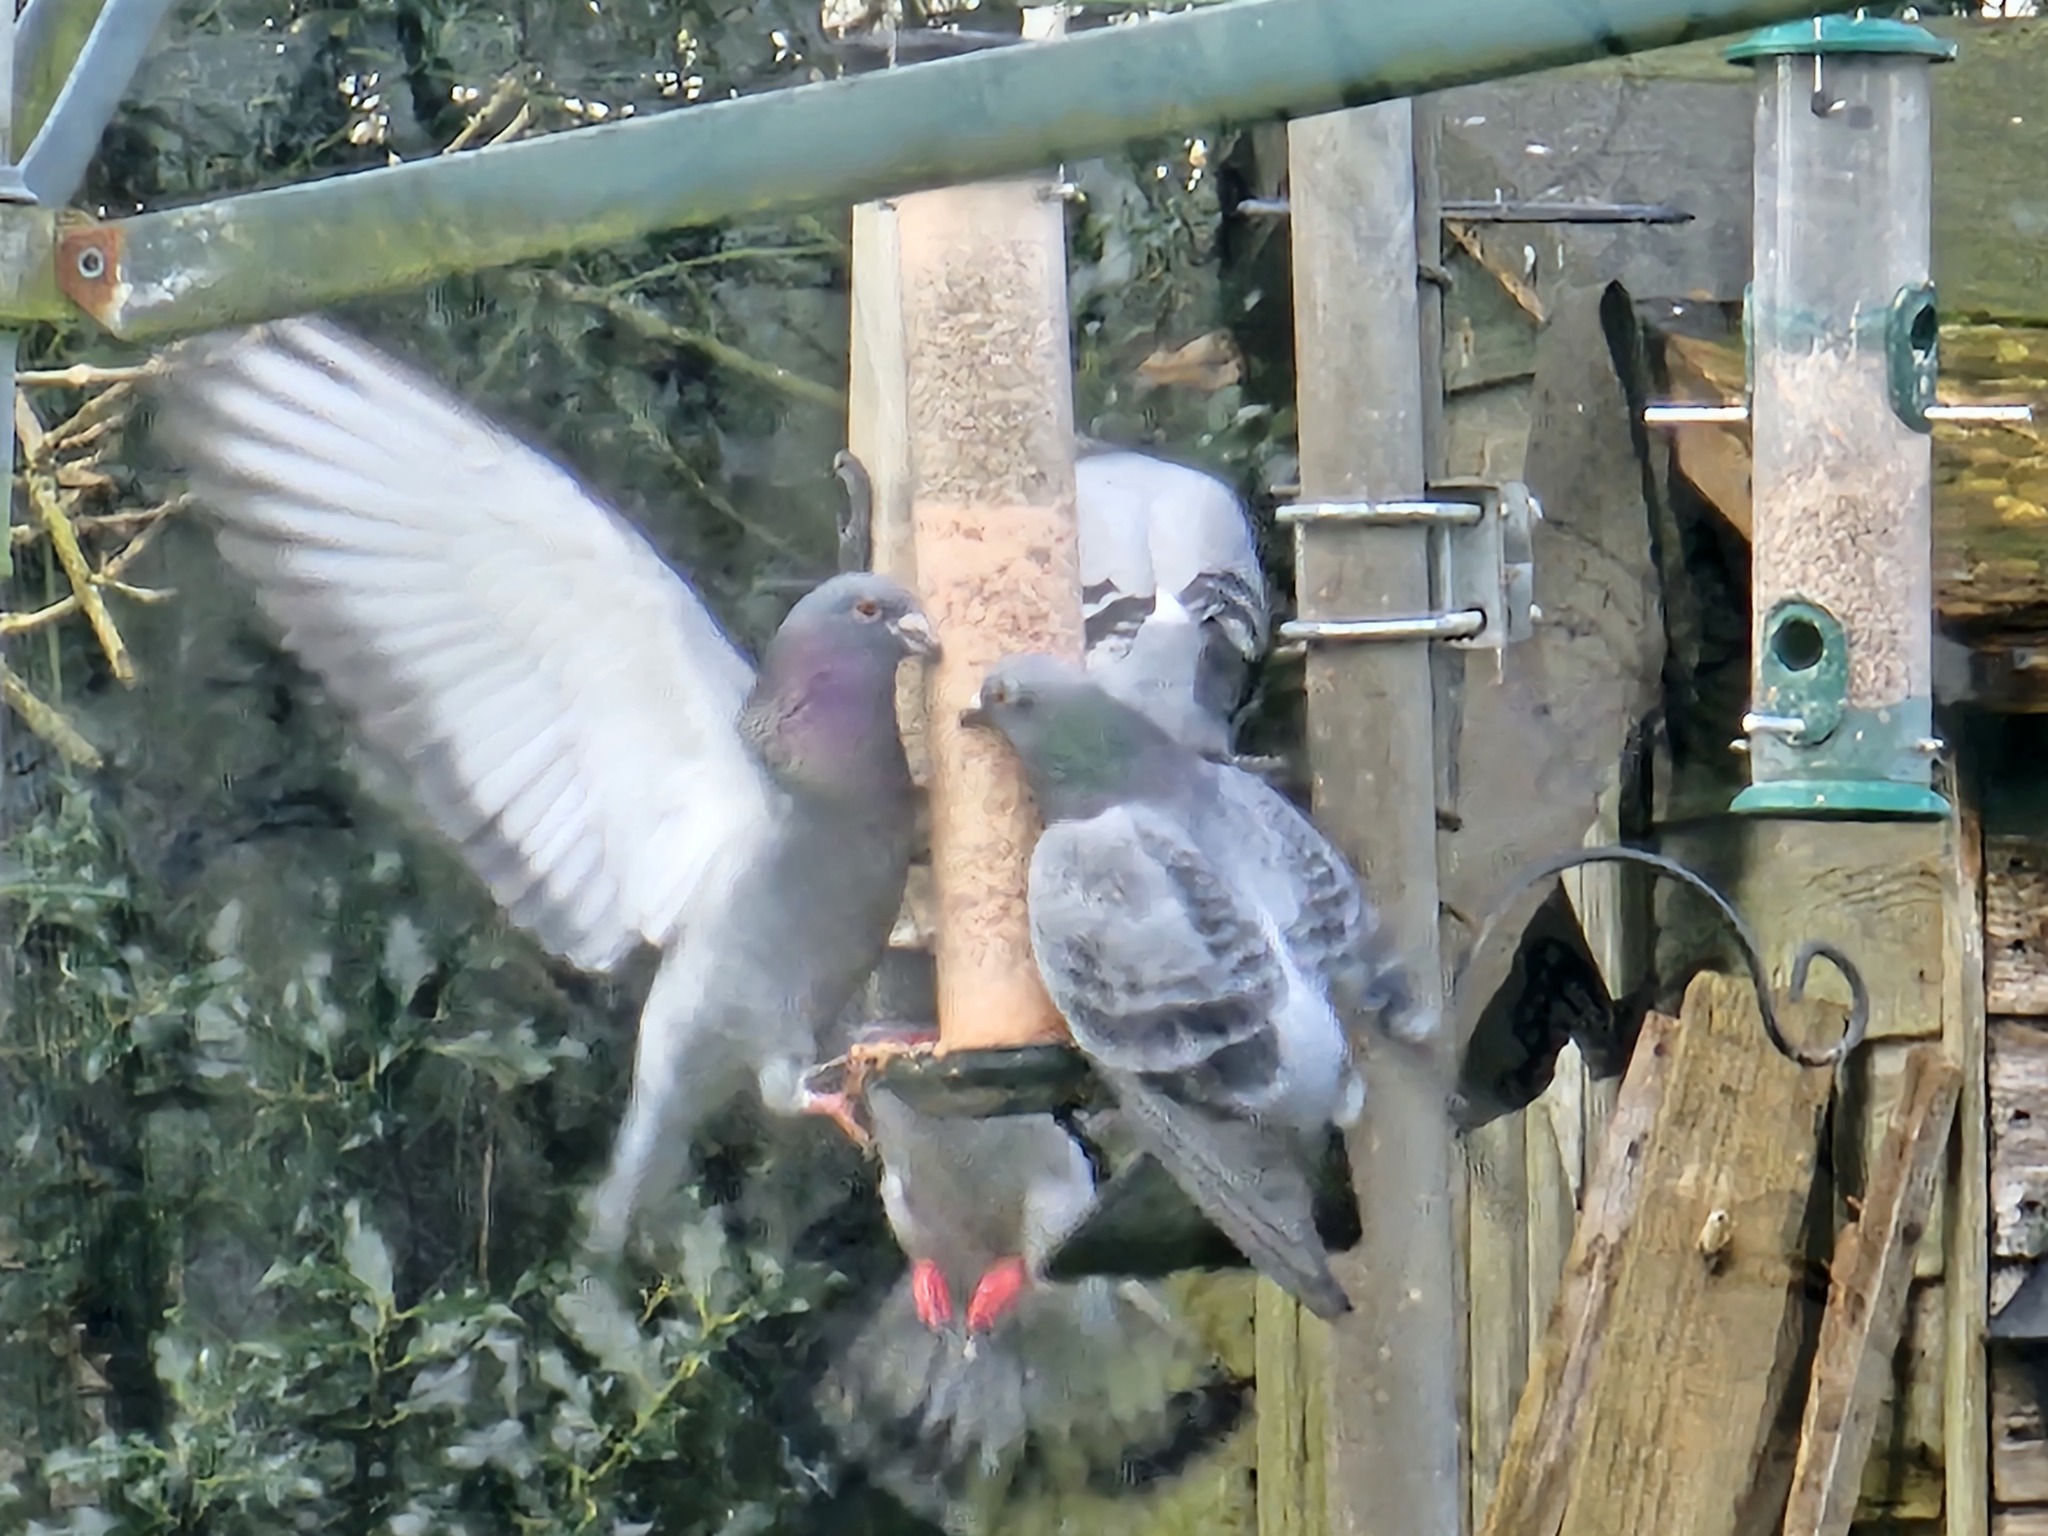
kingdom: Animalia
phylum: Chordata
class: Aves
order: Columbiformes
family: Columbidae
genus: Columba
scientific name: Columba livia
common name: Rock pigeon
